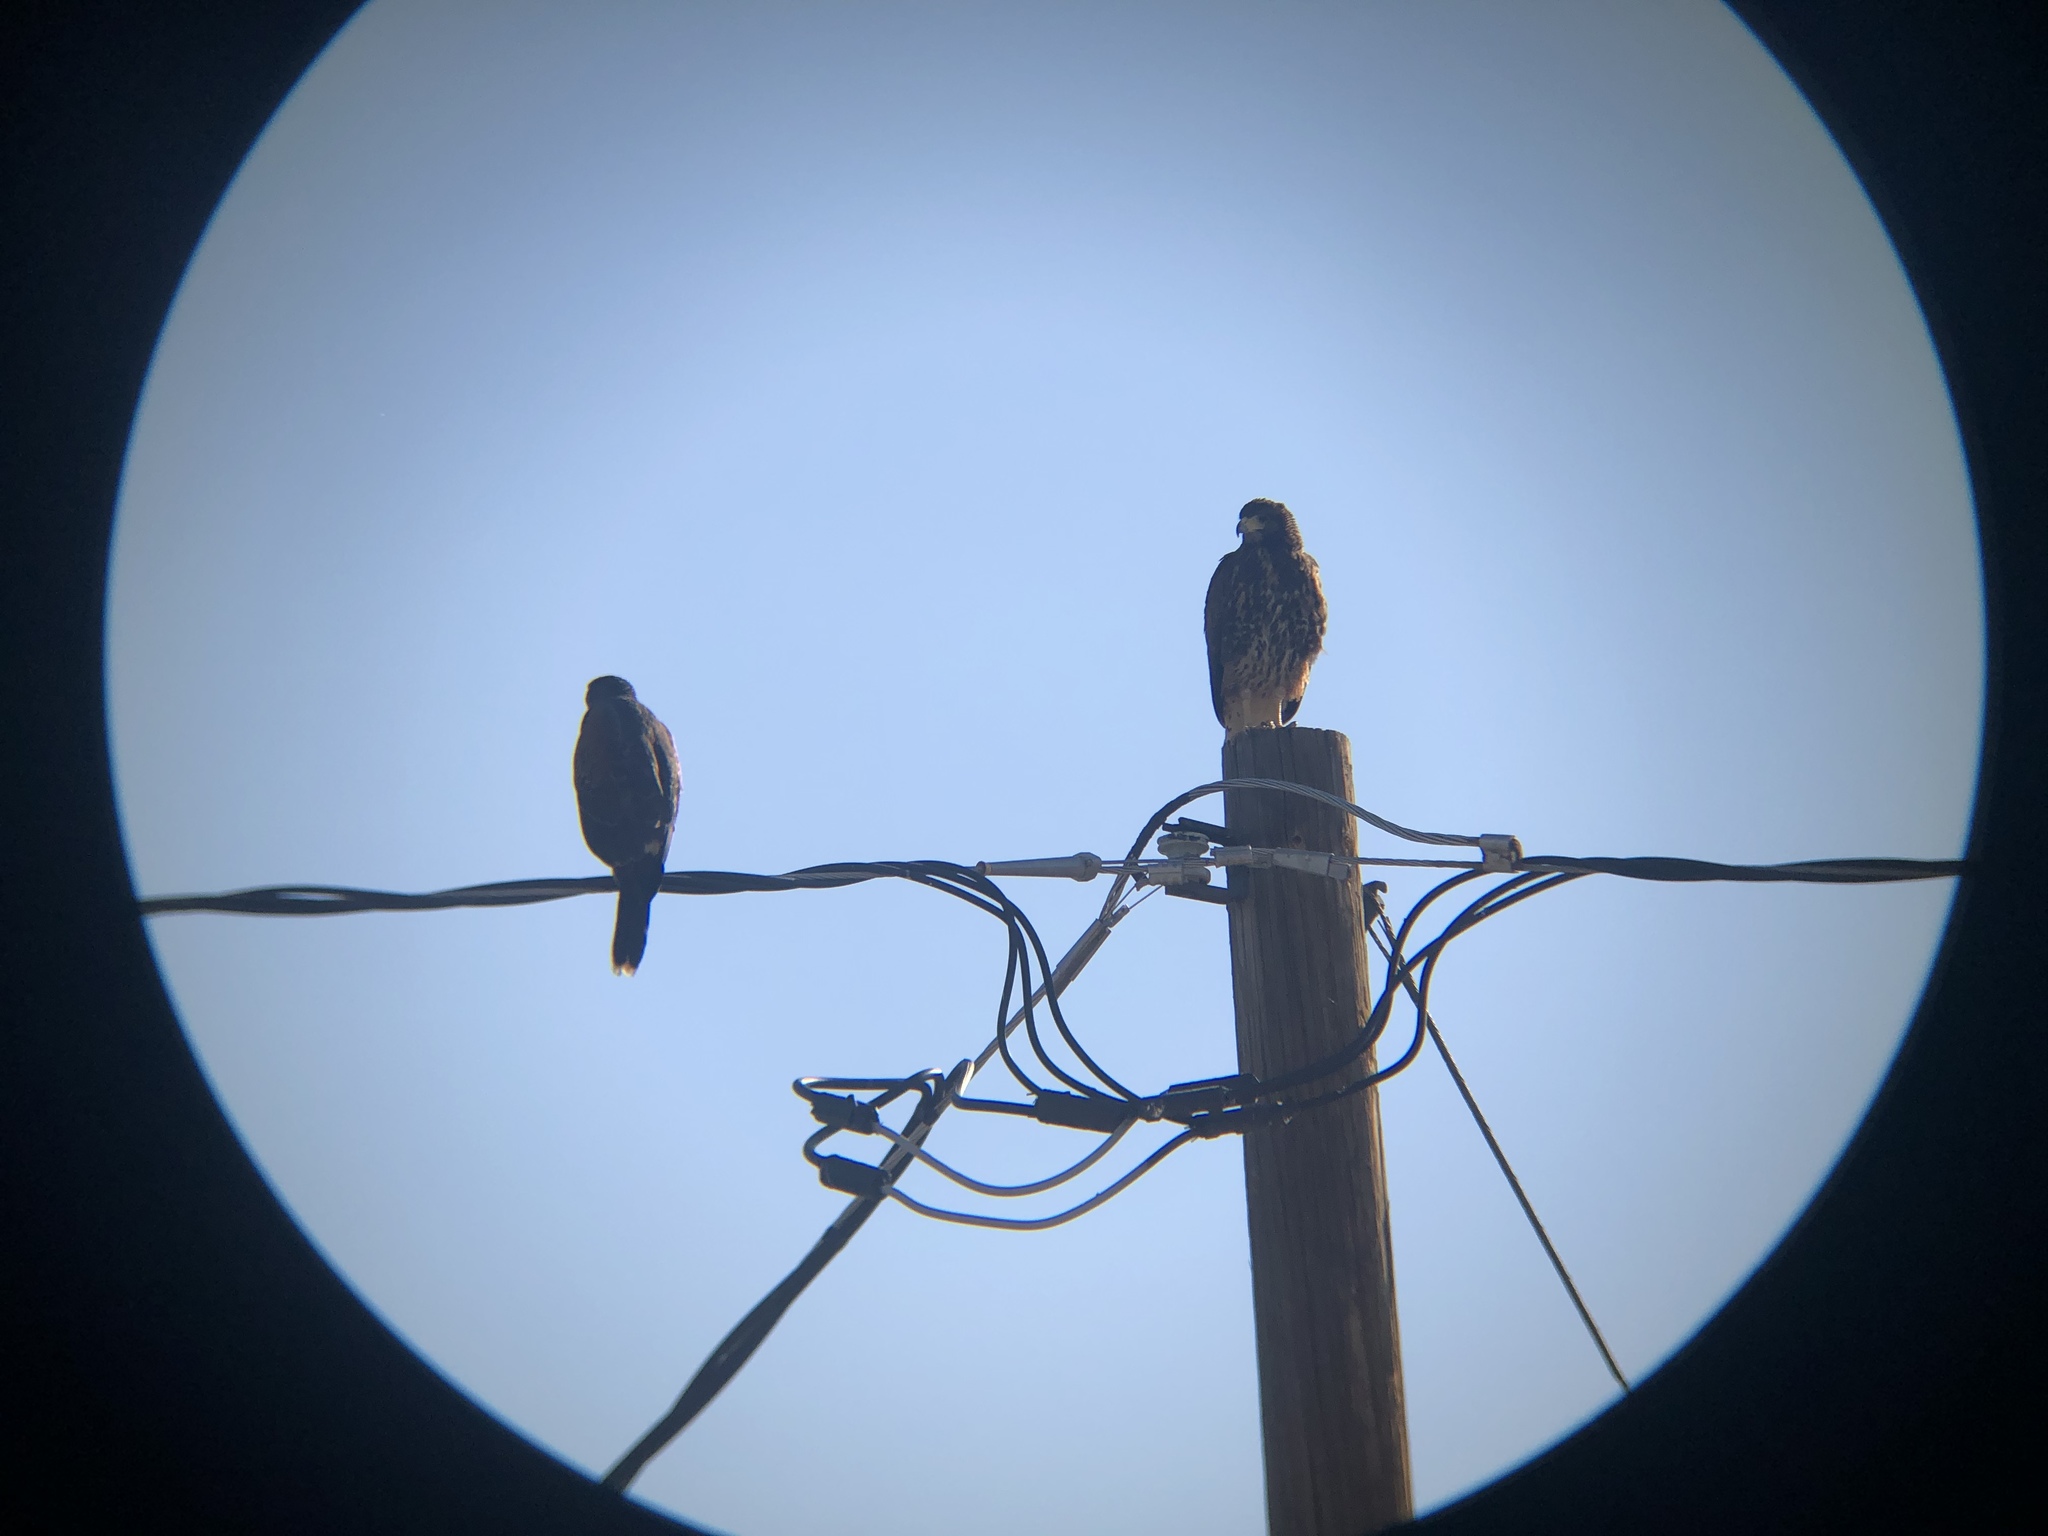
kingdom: Animalia
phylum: Chordata
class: Aves
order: Accipitriformes
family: Accipitridae
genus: Parabuteo
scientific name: Parabuteo unicinctus
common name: Harris's hawk
